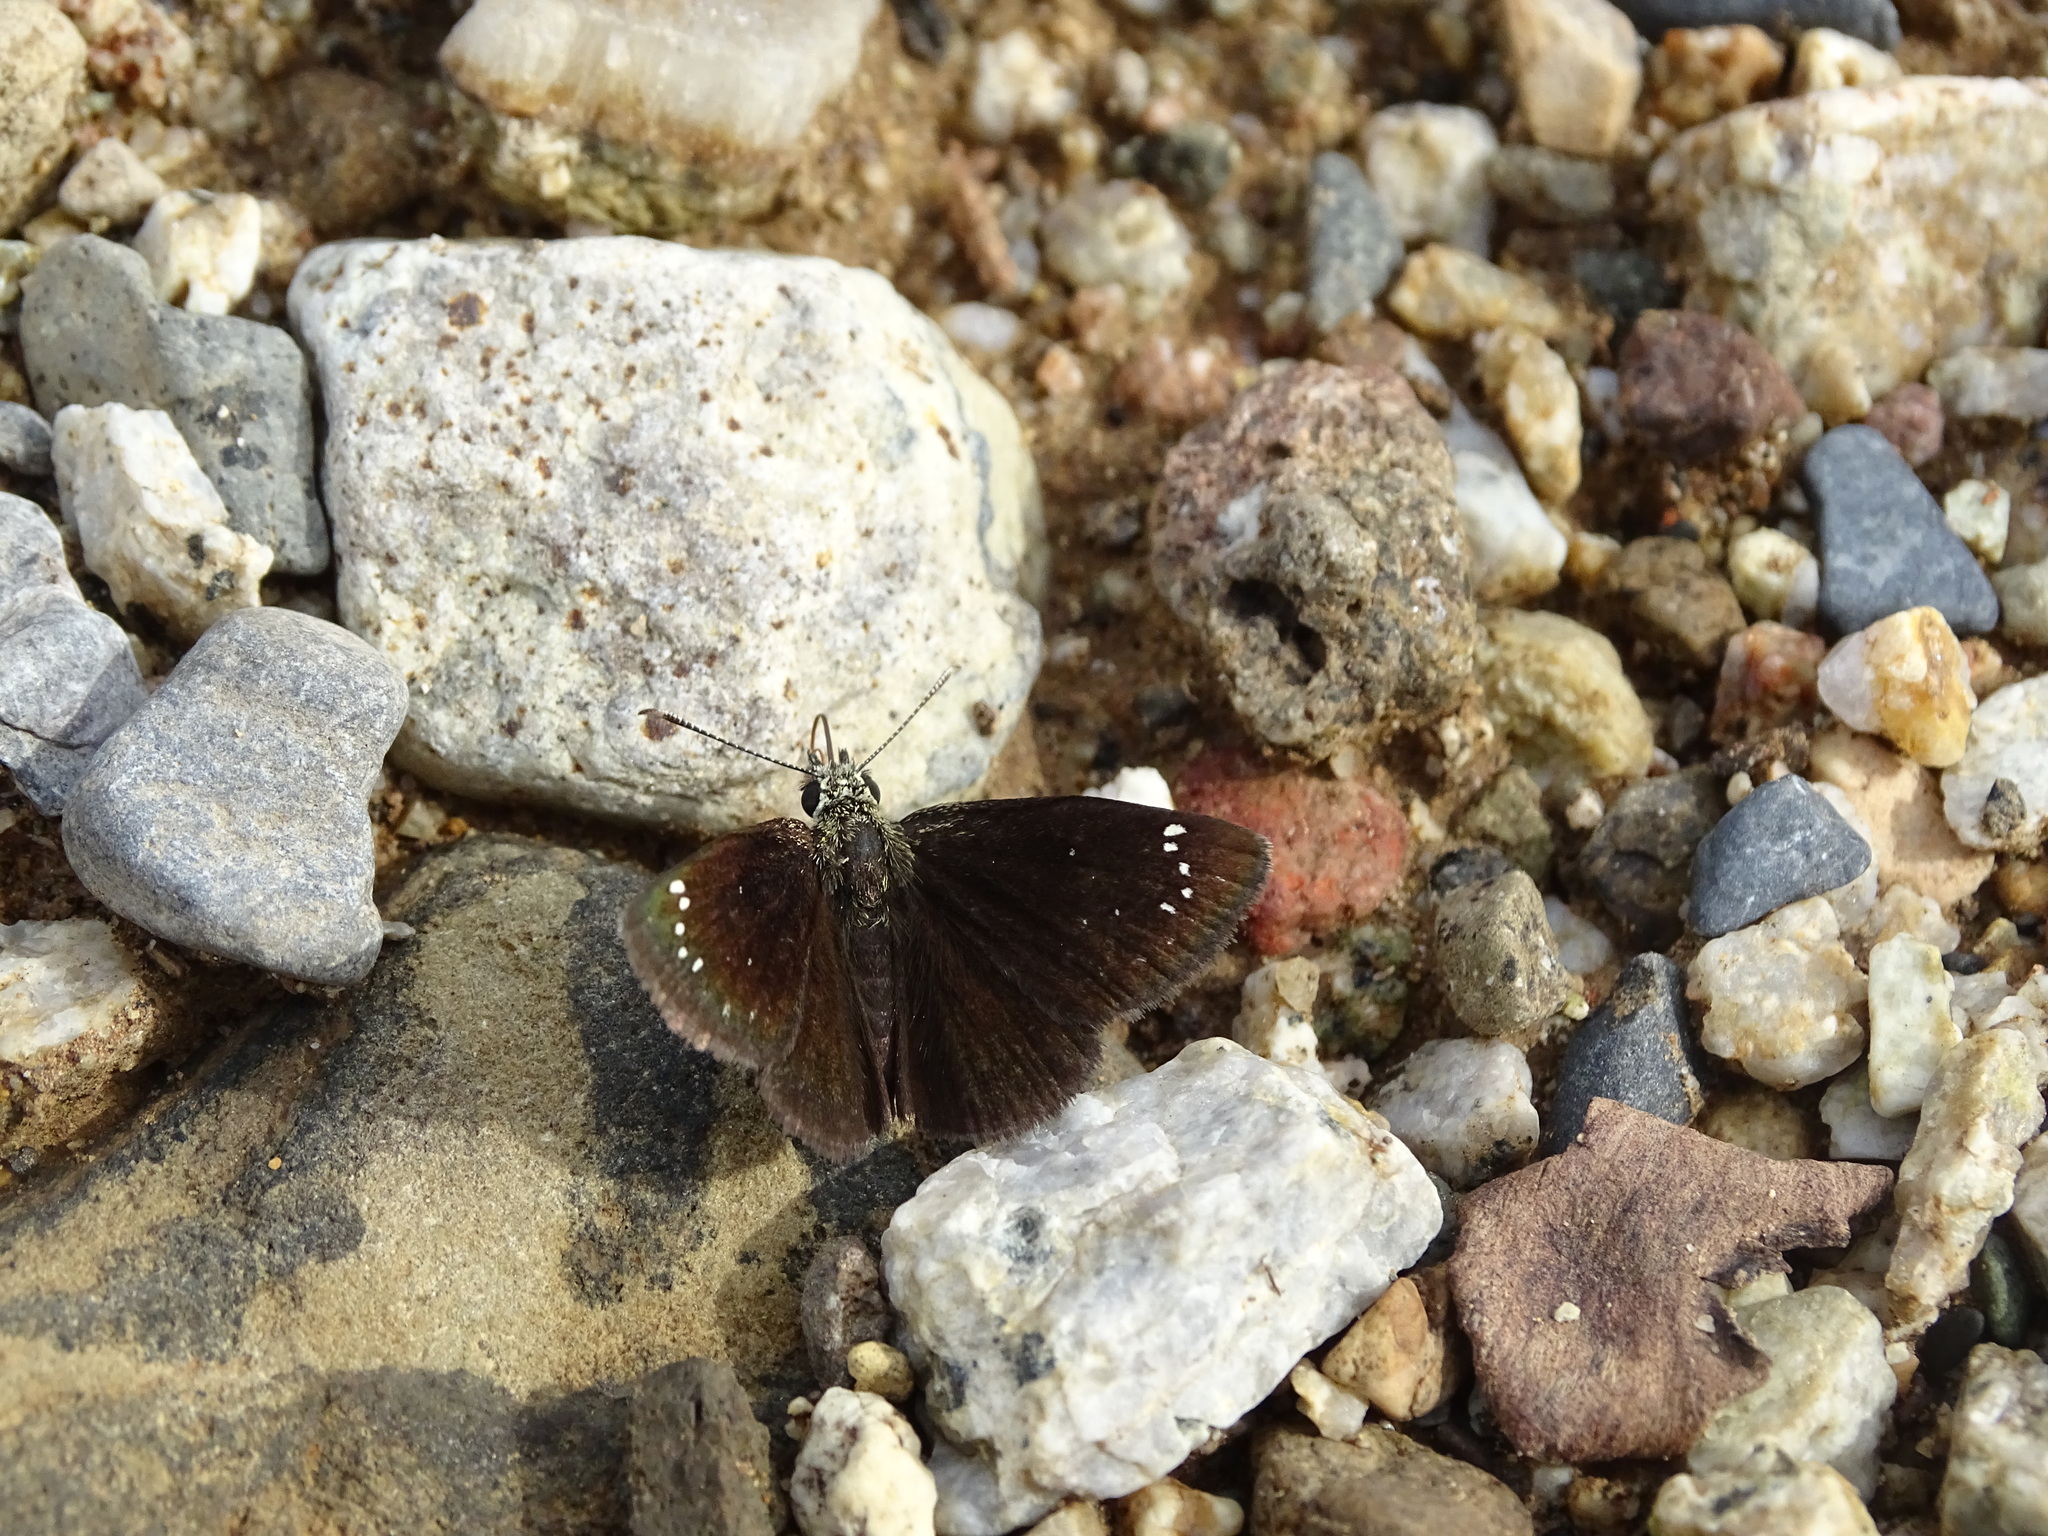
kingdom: Animalia
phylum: Arthropoda
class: Insecta
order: Lepidoptera
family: Hesperiidae
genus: Pholisora
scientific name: Pholisora catullus
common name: Common sootywing
